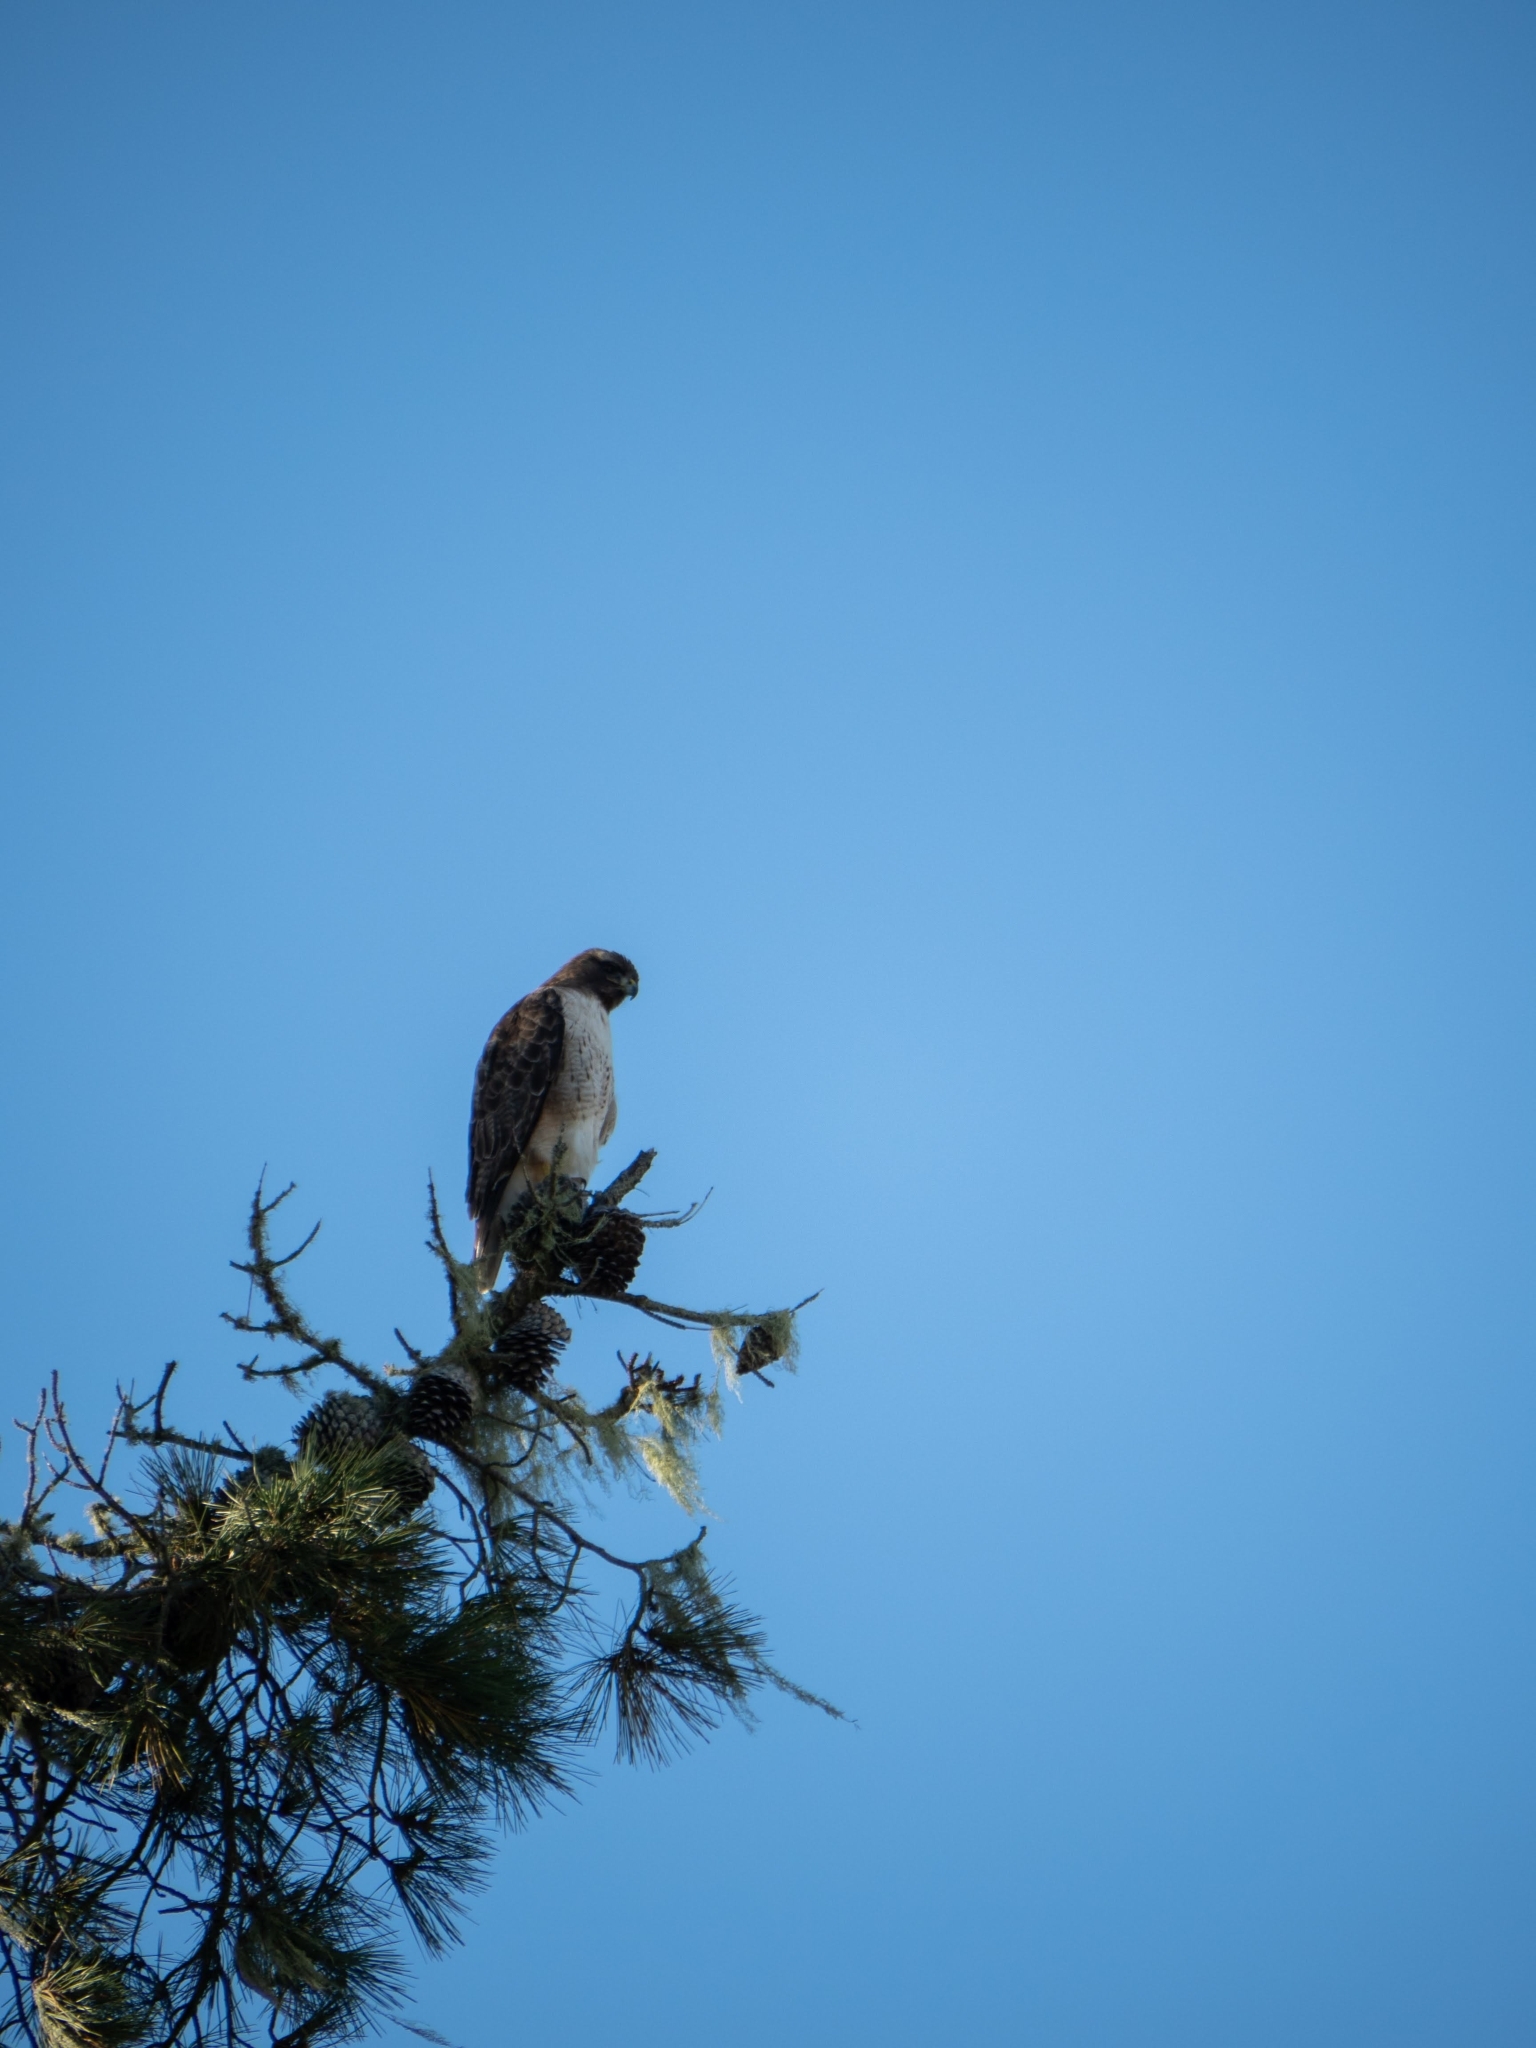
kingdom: Animalia
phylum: Chordata
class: Aves
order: Accipitriformes
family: Accipitridae
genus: Buteo
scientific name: Buteo jamaicensis
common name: Red-tailed hawk
